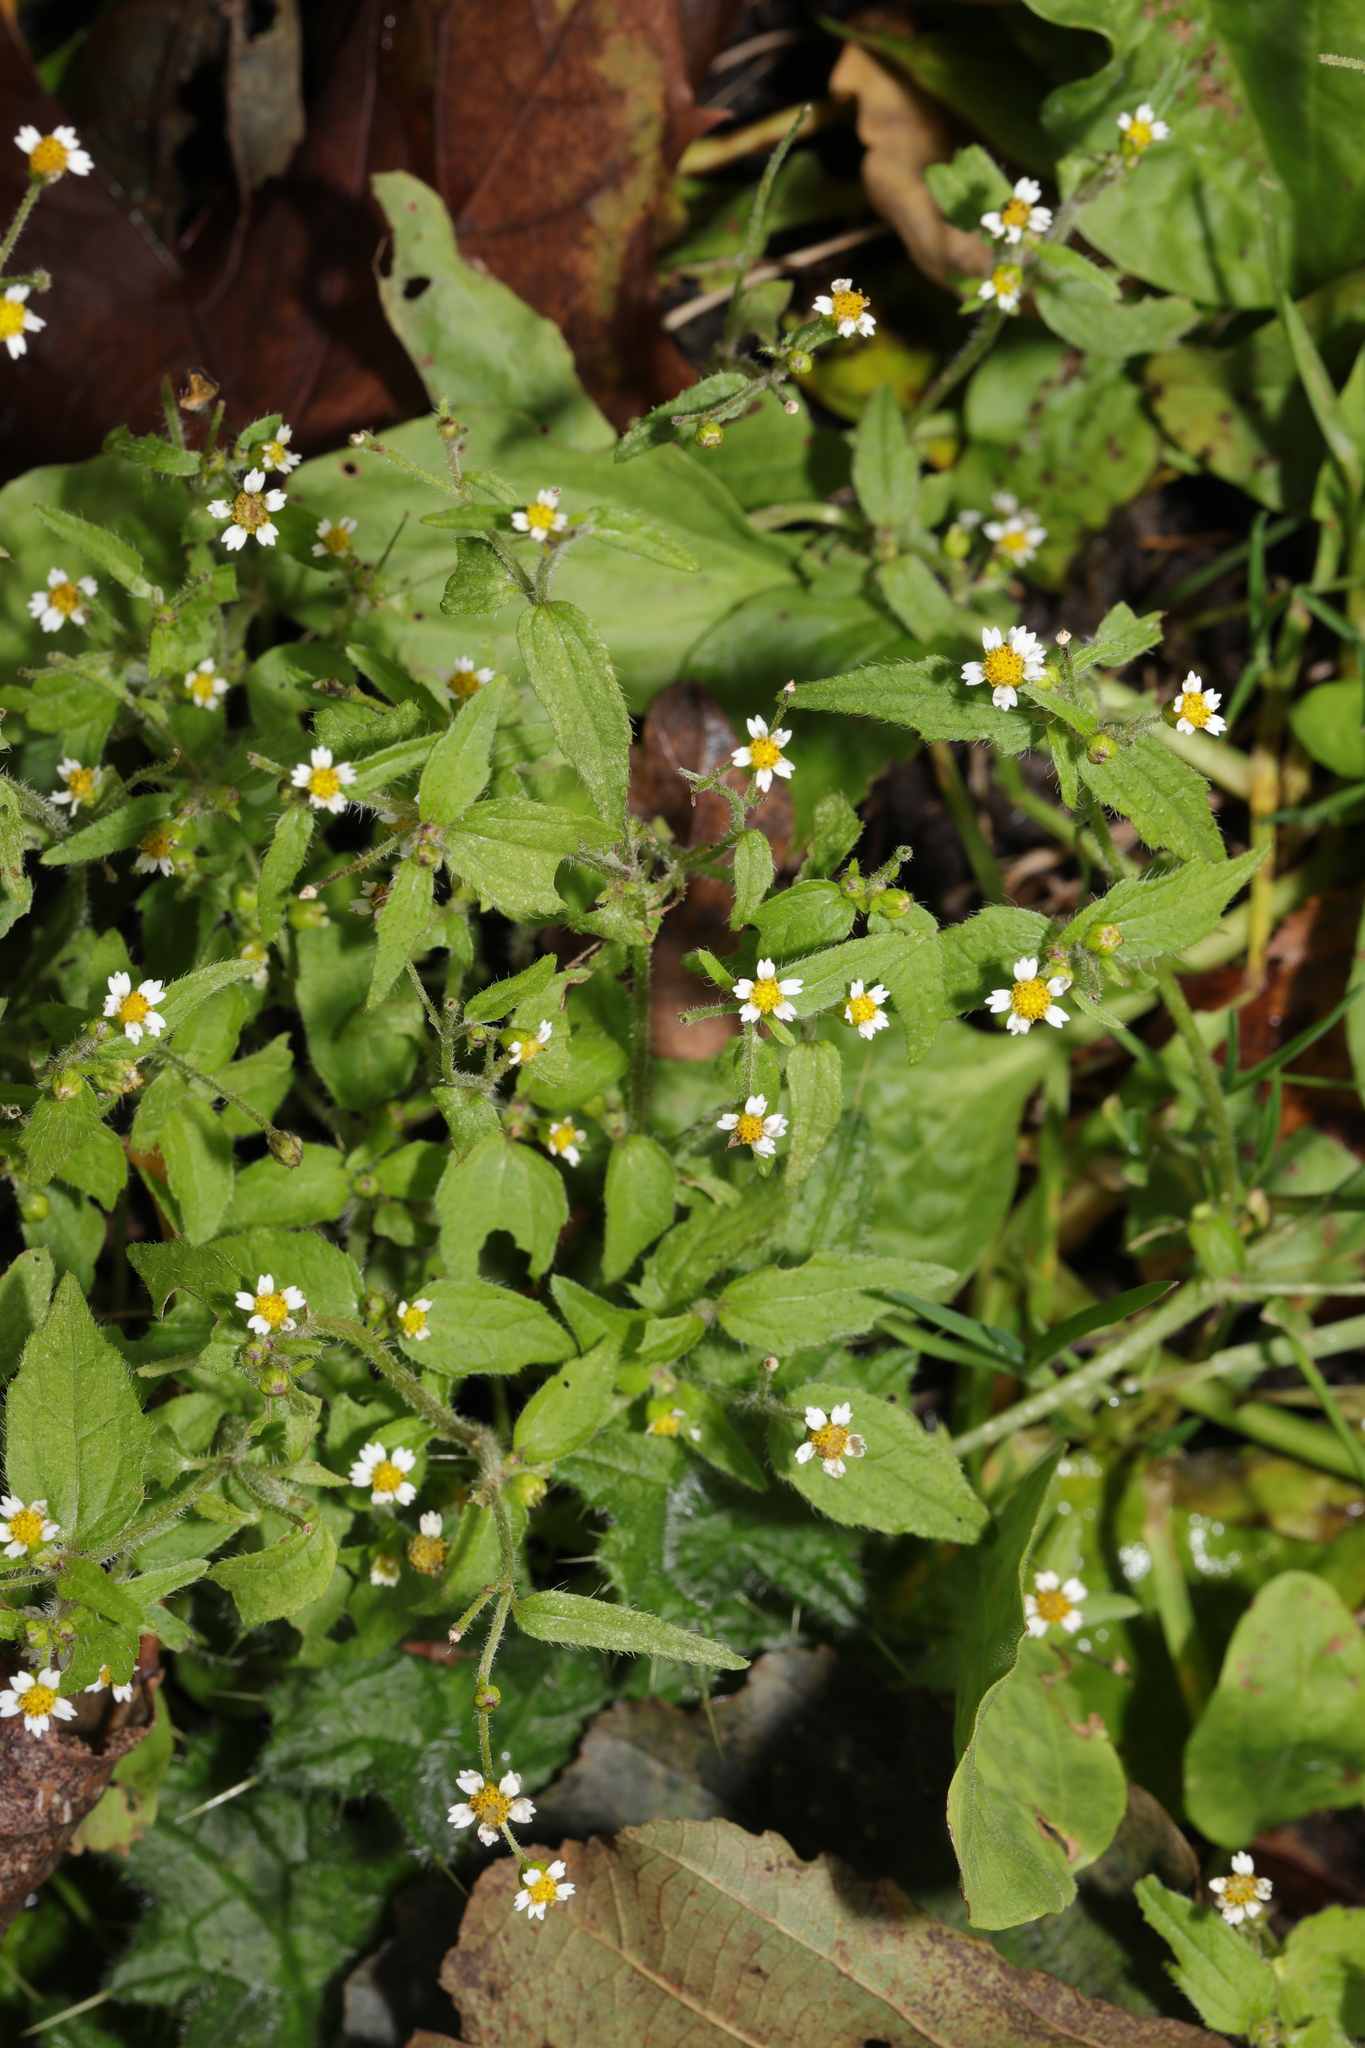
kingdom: Plantae
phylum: Tracheophyta
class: Magnoliopsida
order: Asterales
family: Asteraceae
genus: Galinsoga
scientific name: Galinsoga quadriradiata
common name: Shaggy soldier
